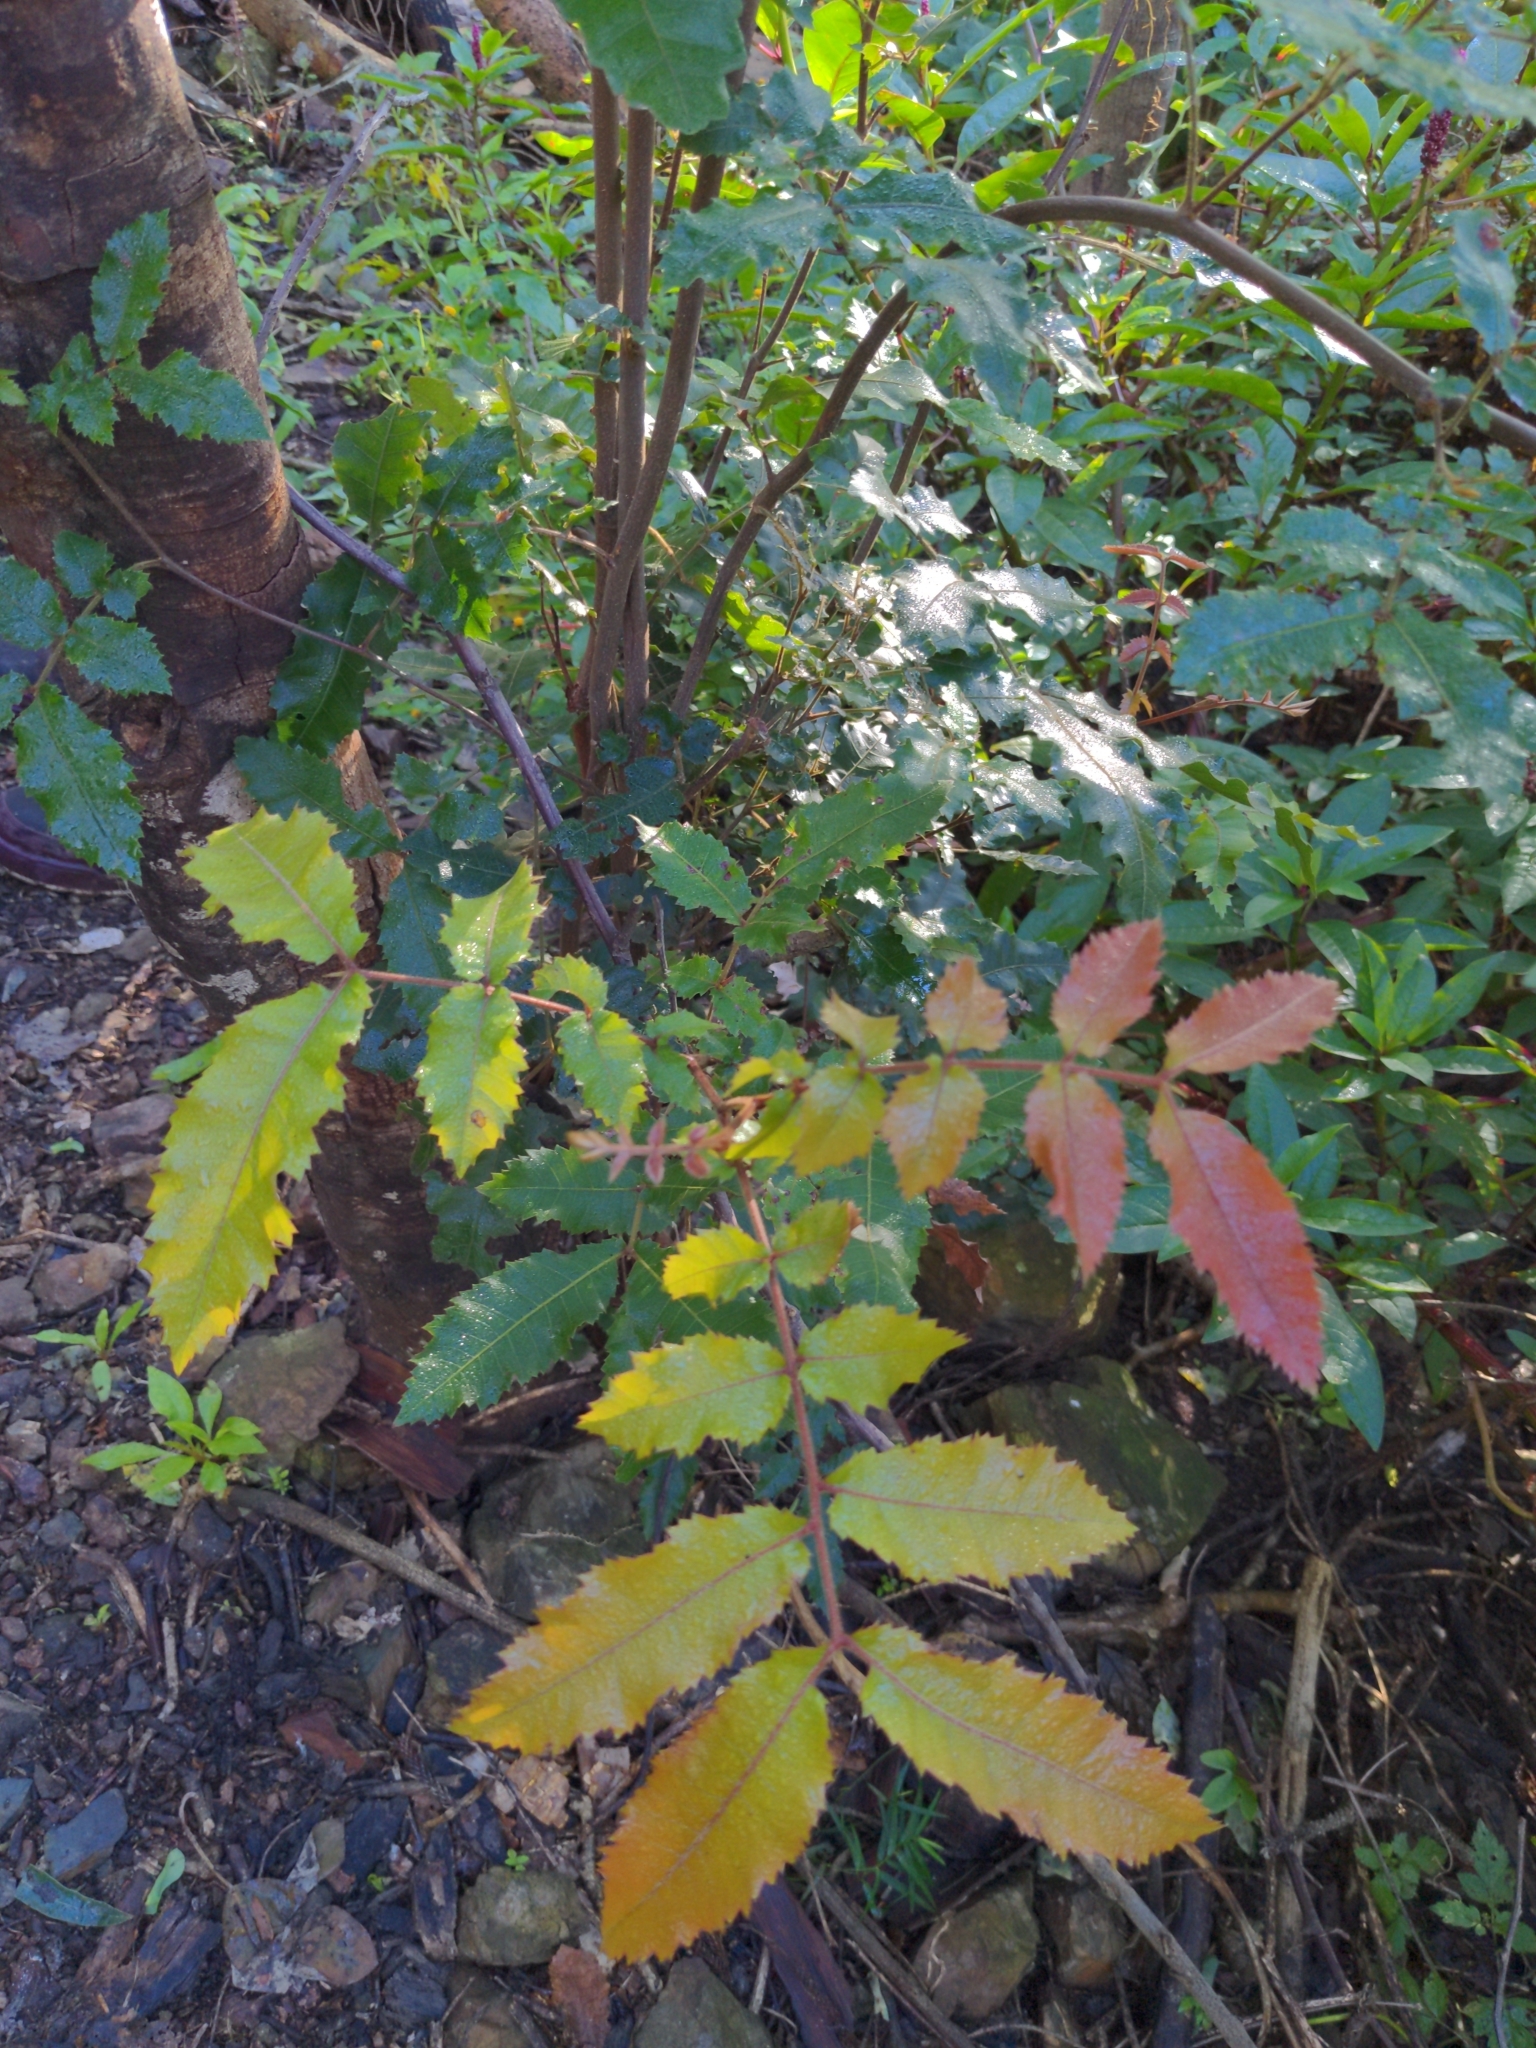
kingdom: Plantae
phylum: Tracheophyta
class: Magnoliopsida
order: Sapindales
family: Sapindaceae
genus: Alectryon
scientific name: Alectryon tomentosus
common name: Bed-jacket
